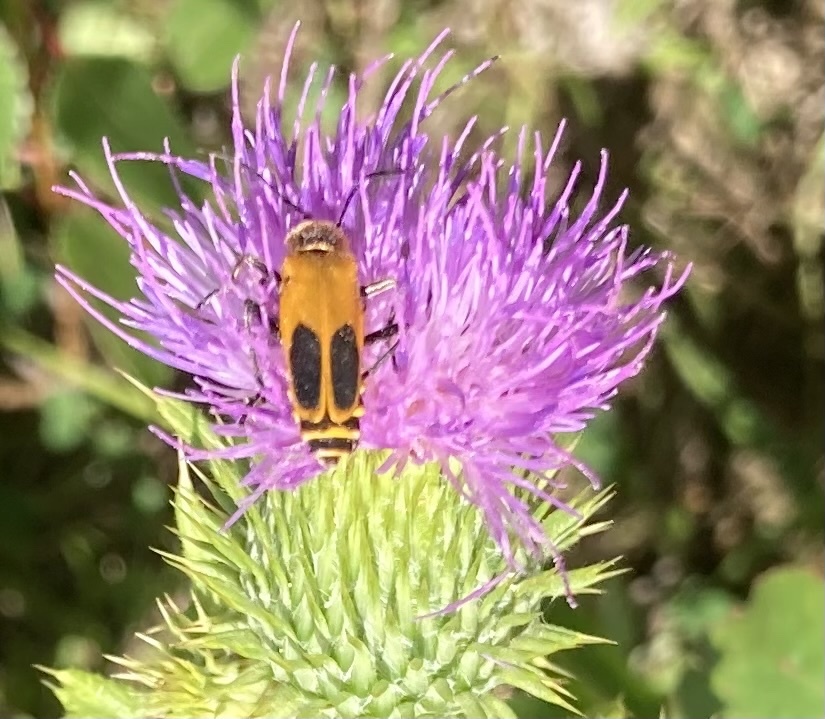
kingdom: Animalia
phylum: Arthropoda
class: Insecta
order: Coleoptera
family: Cantharidae
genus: Chauliognathus
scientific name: Chauliognathus pensylvanicus
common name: Goldenrod soldier beetle
